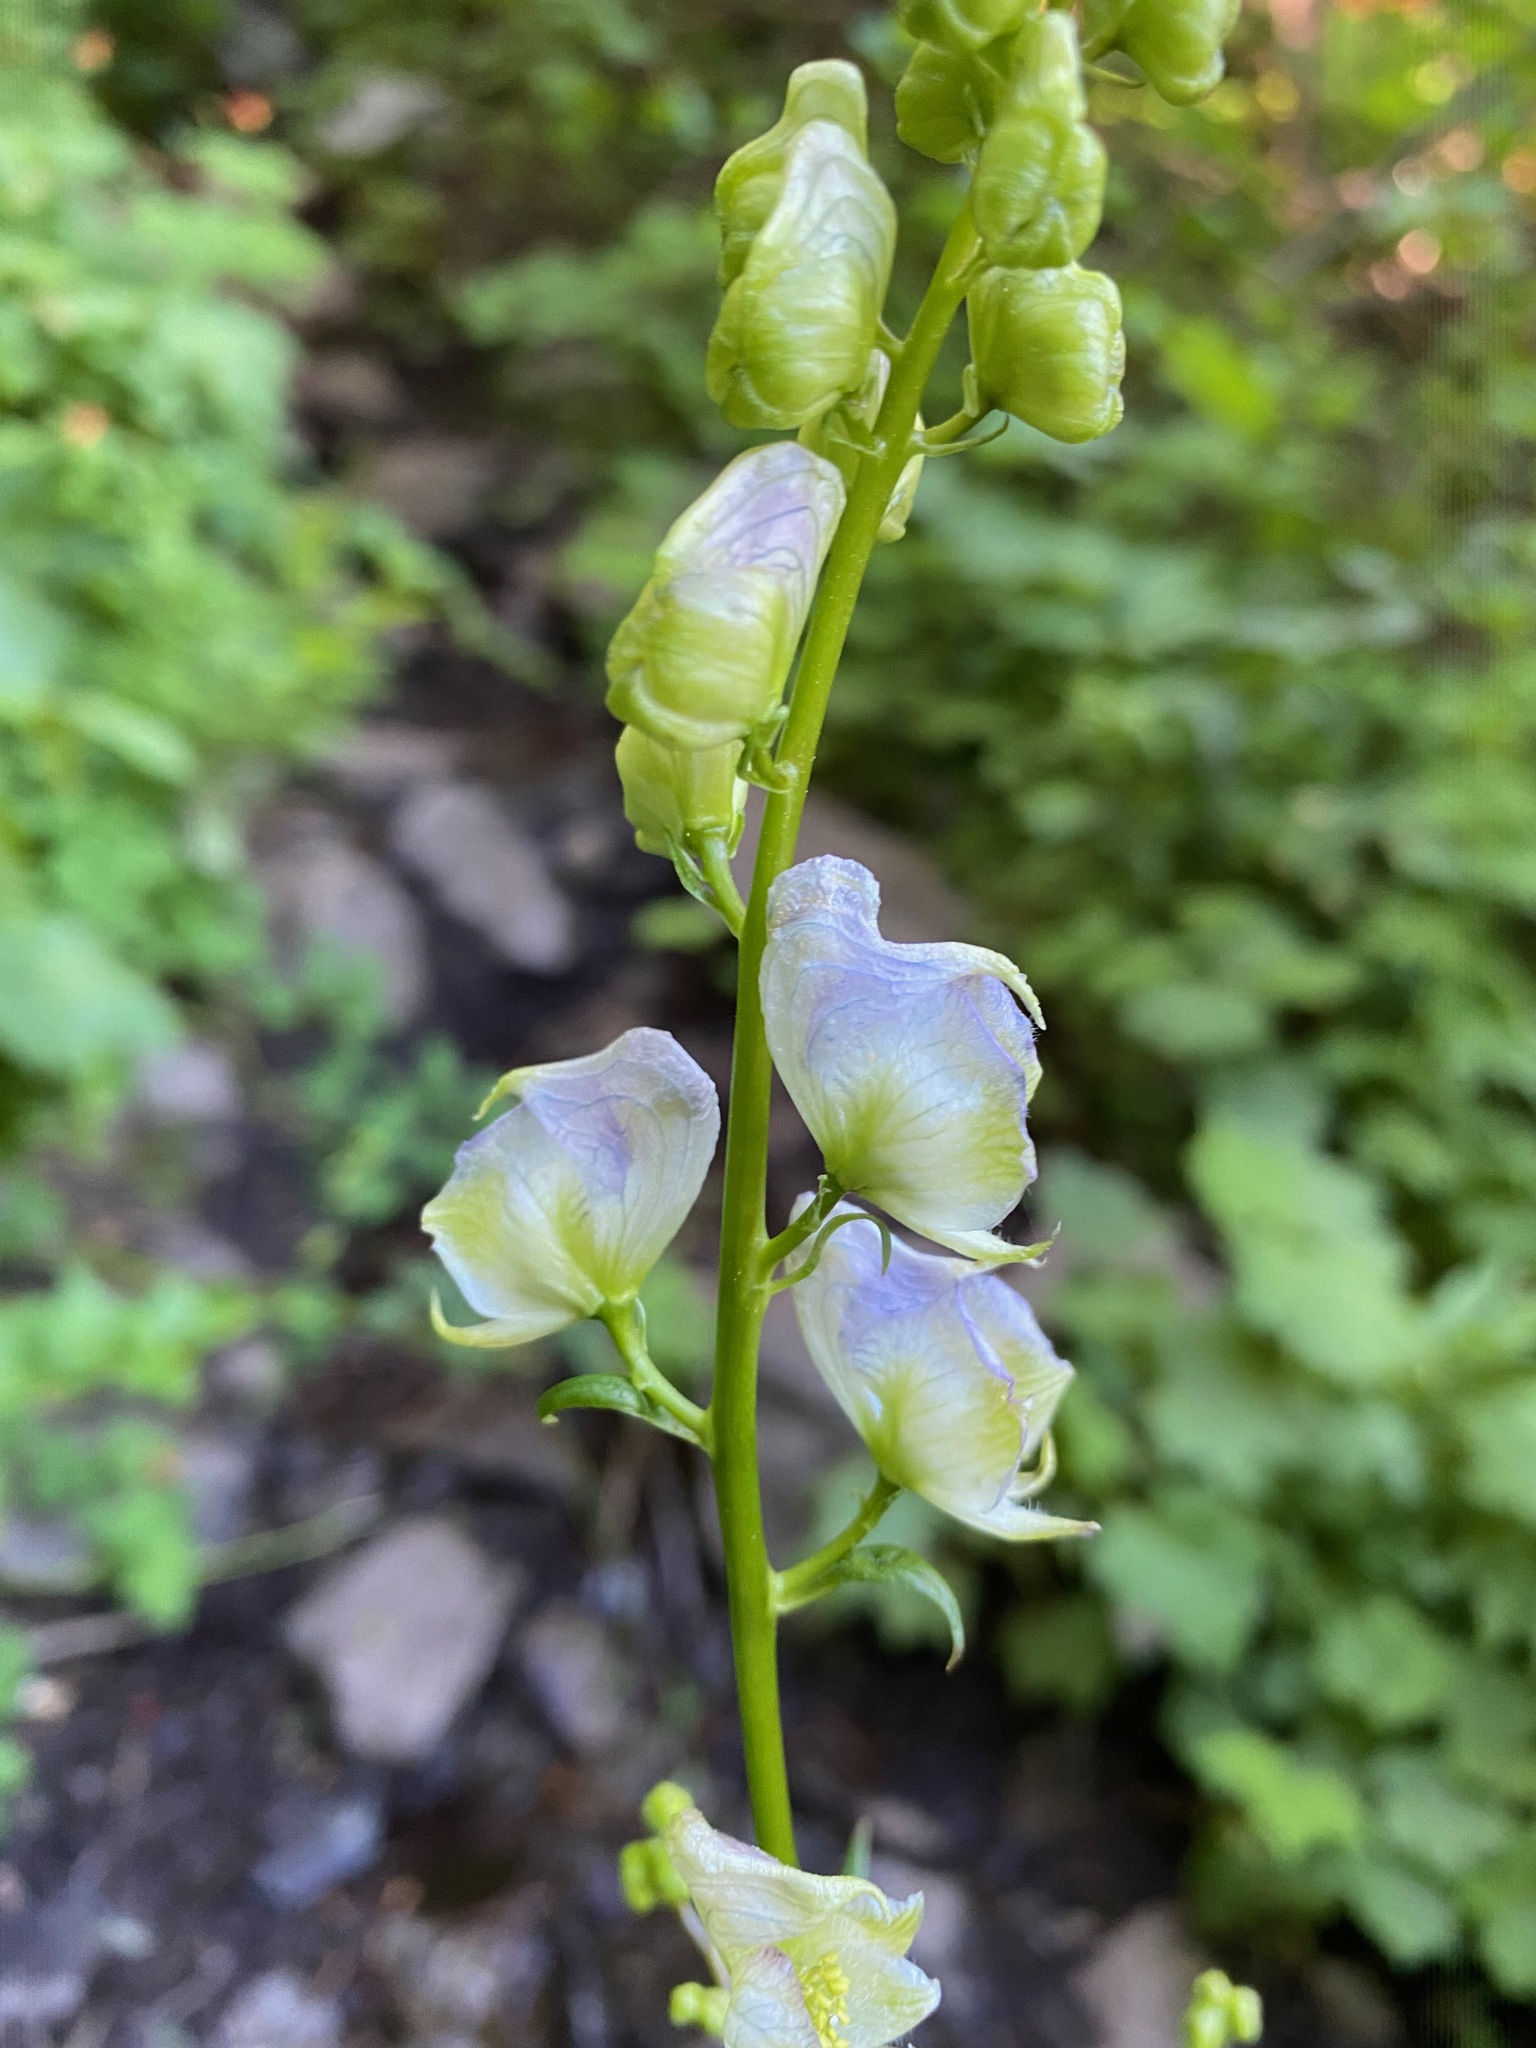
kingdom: Plantae
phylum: Tracheophyta
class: Magnoliopsida
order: Ranunculales
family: Ranunculaceae
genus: Aconitum
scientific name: Aconitum columbianum
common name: Columbia aconite
